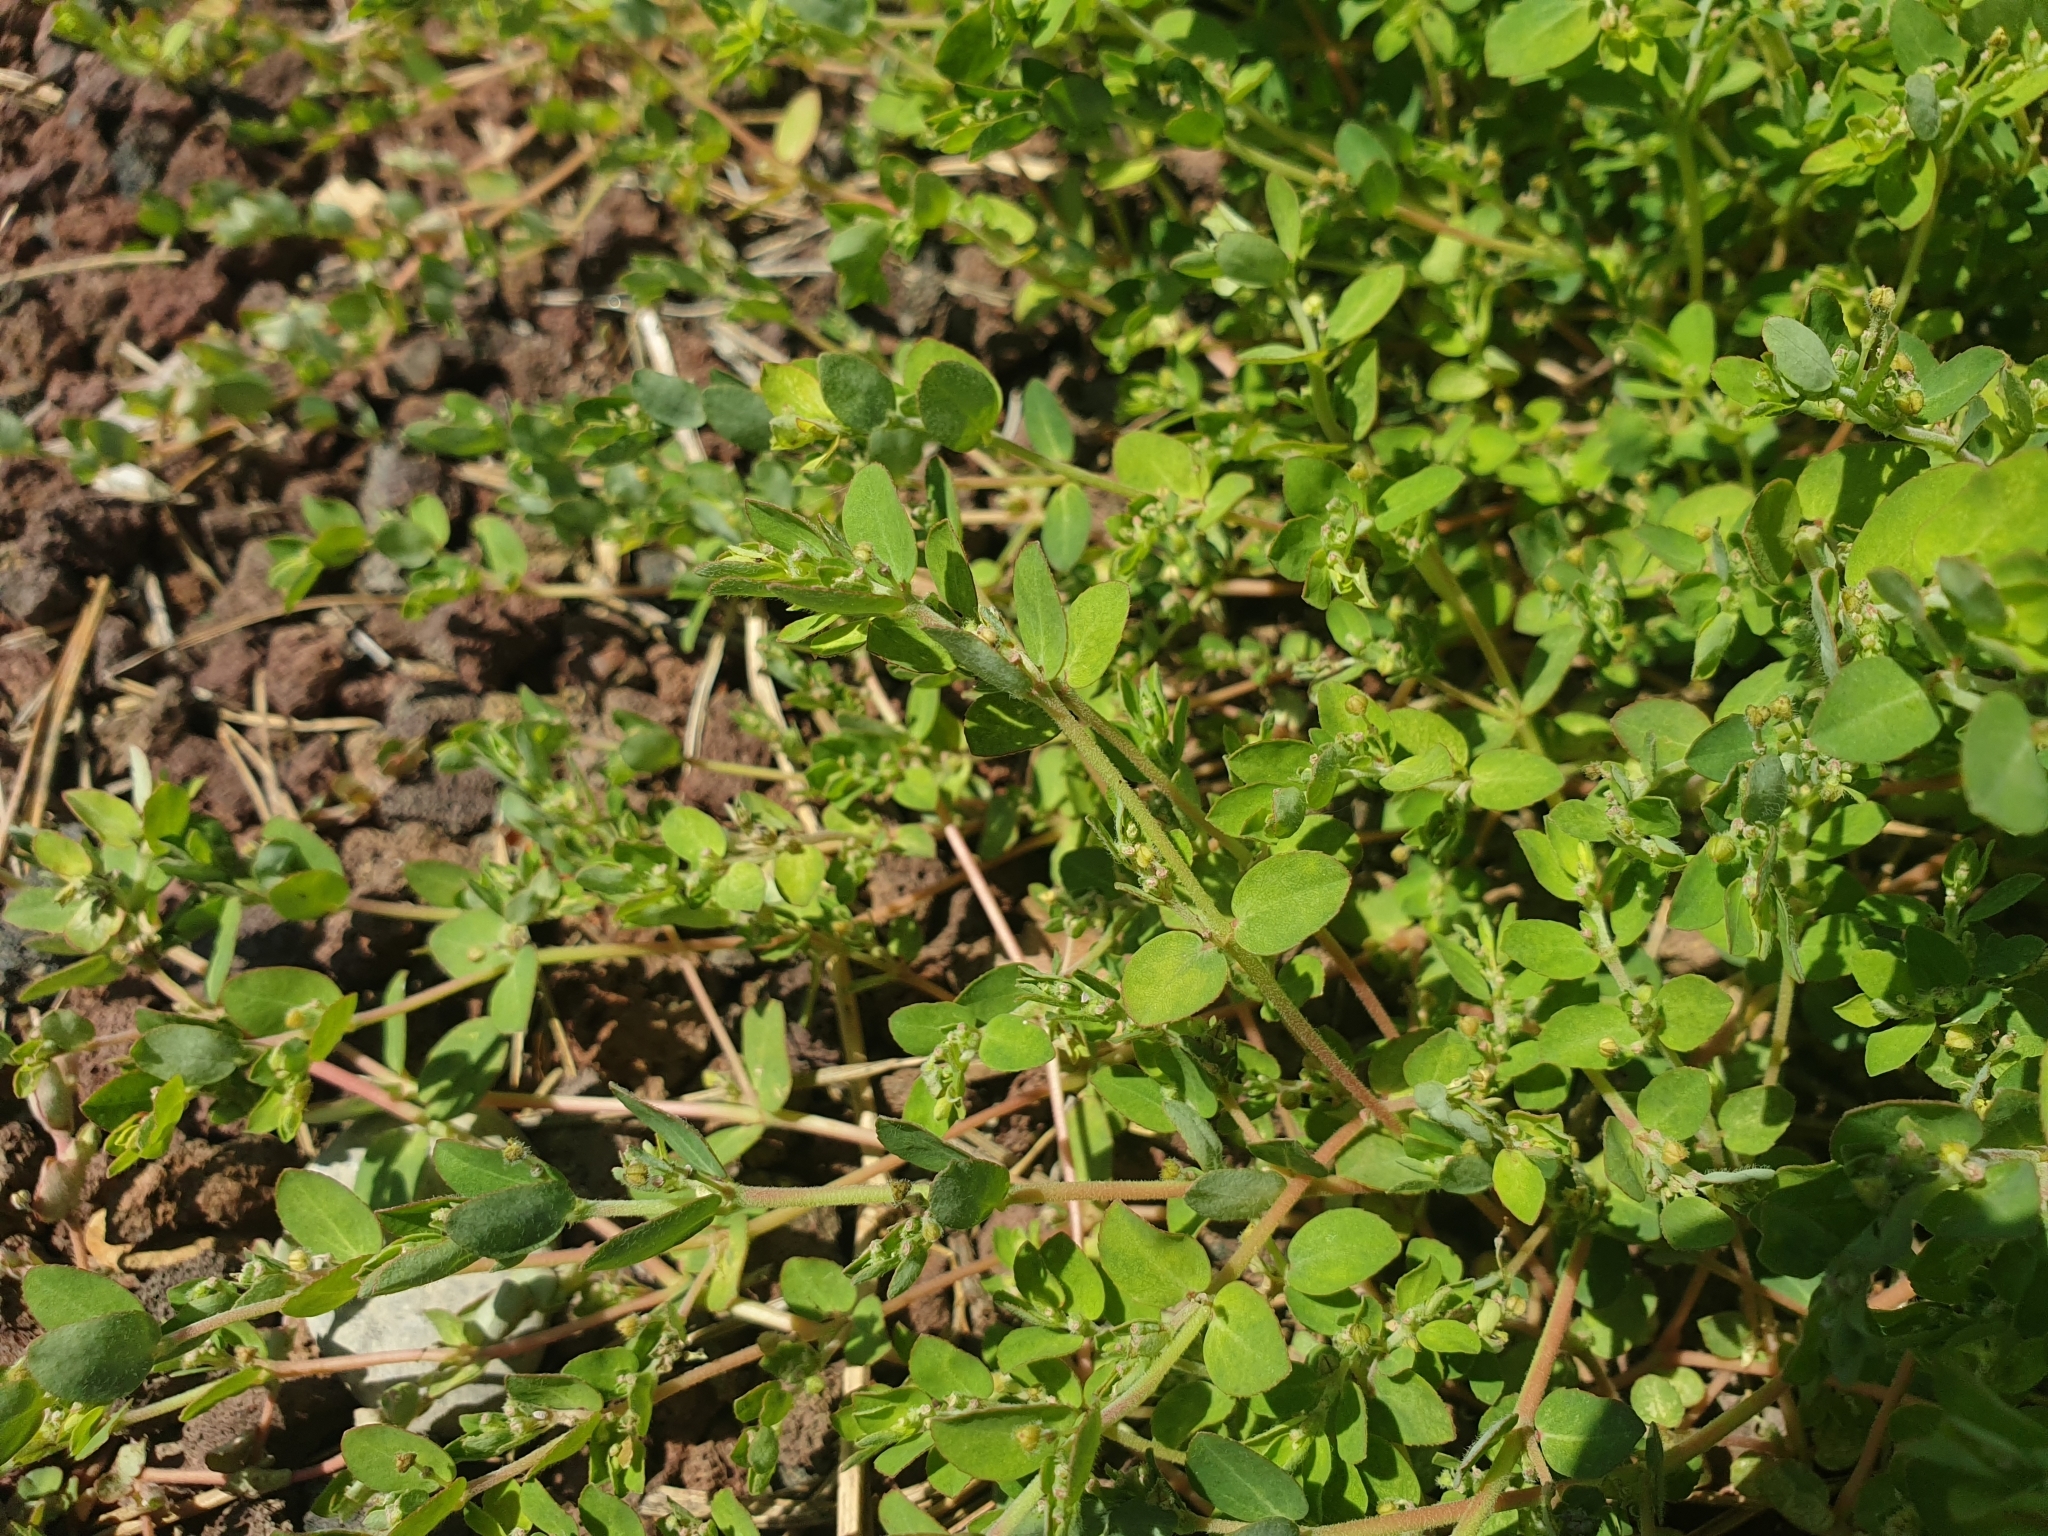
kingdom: Plantae
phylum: Tracheophyta
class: Magnoliopsida
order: Malpighiales
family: Euphorbiaceae
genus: Euphorbia
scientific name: Euphorbia prostrata
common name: Prostrate sandmat
